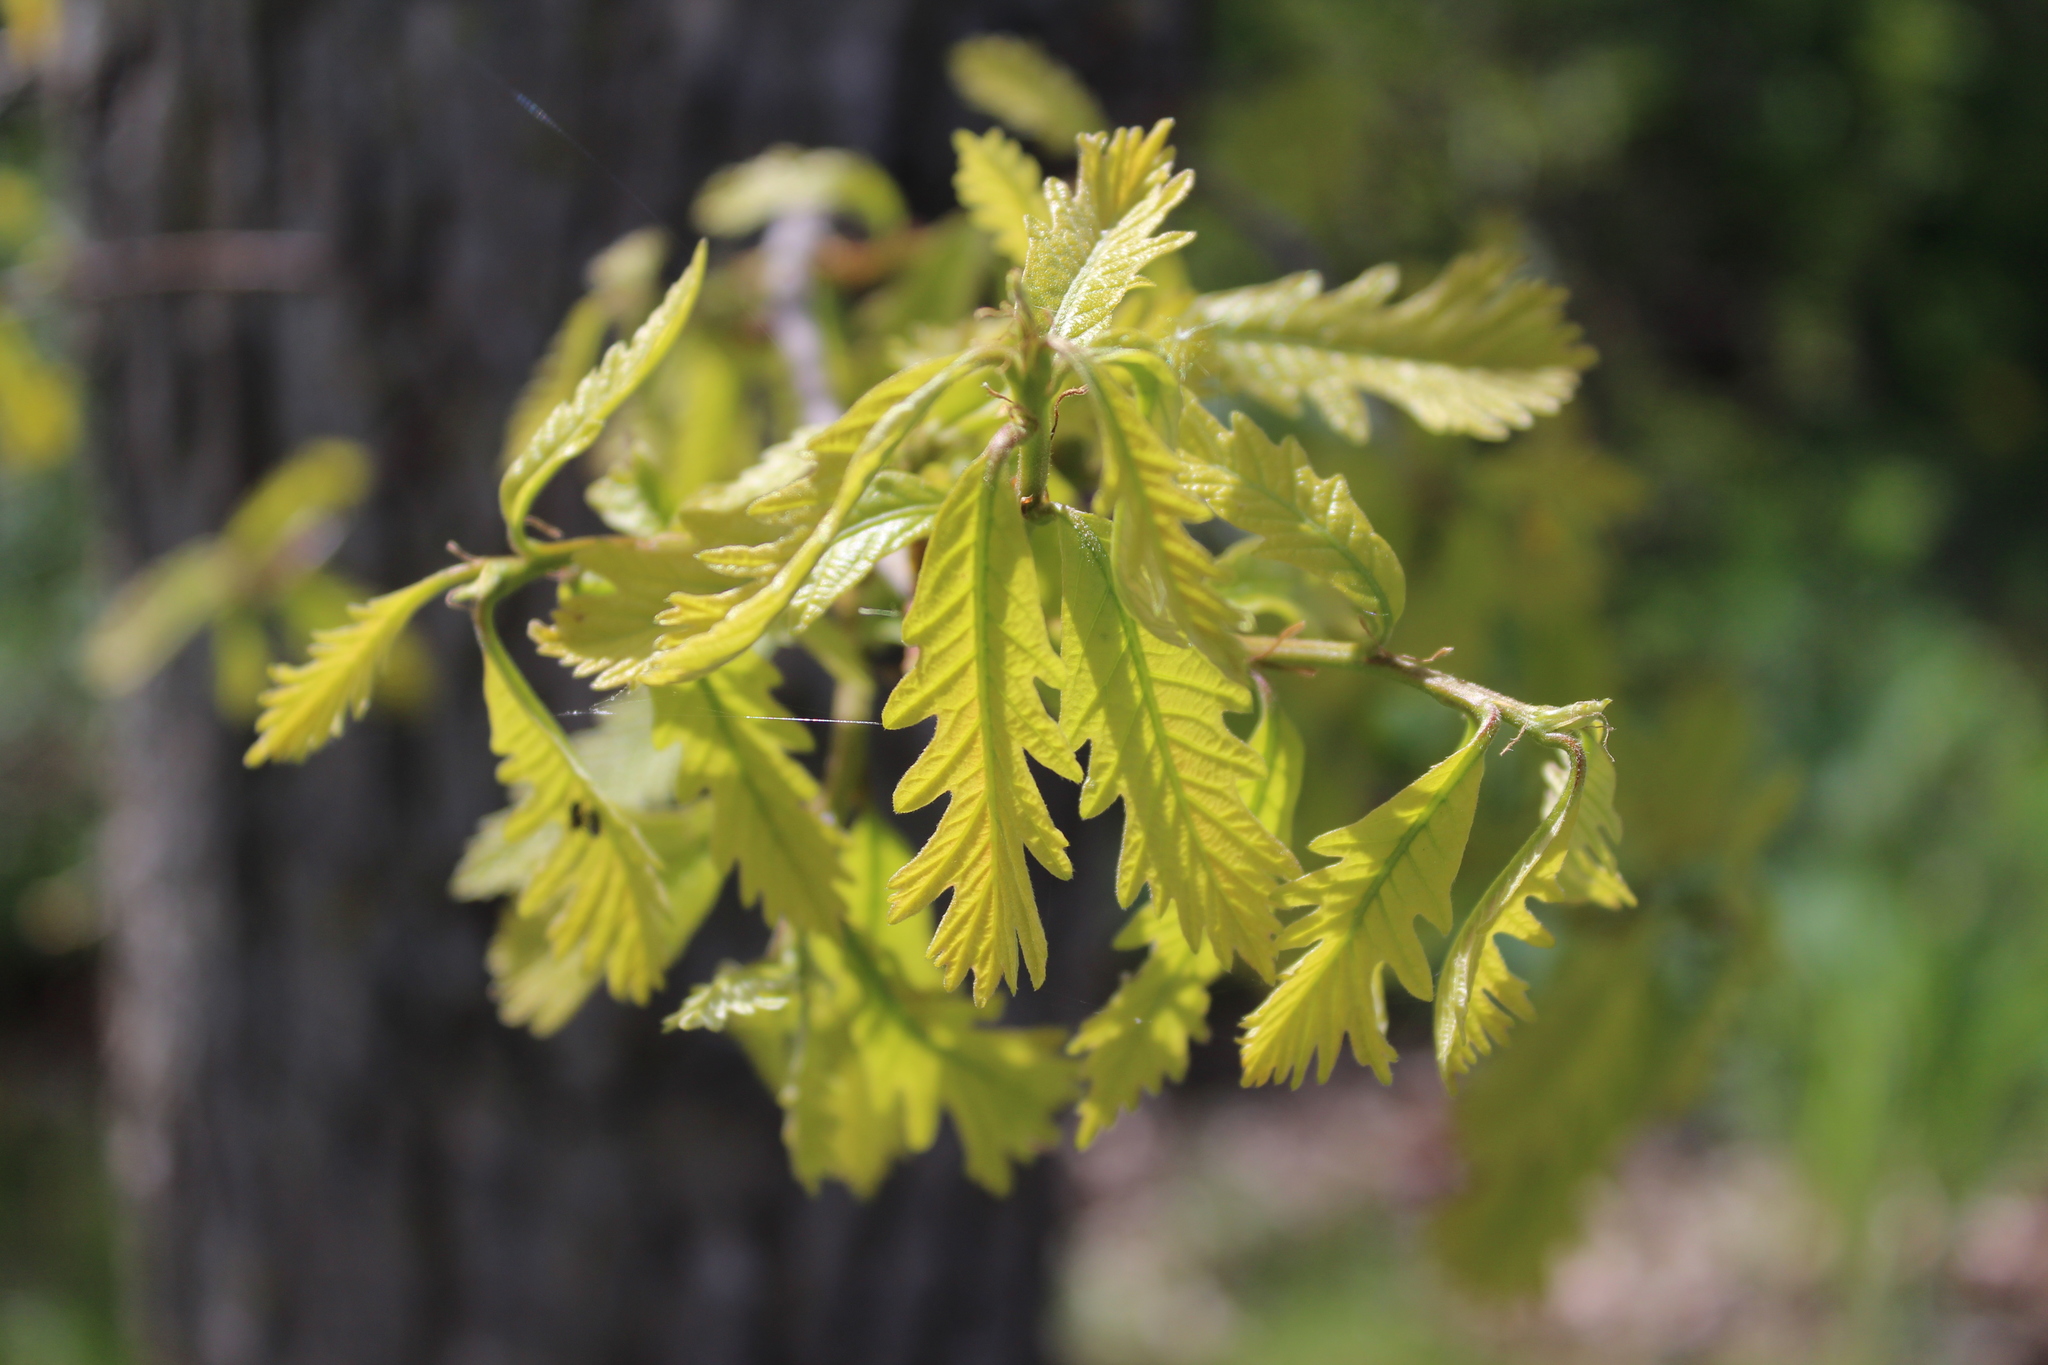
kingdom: Plantae
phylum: Tracheophyta
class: Magnoliopsida
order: Fagales
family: Fagaceae
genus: Quercus
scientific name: Quercus macrocarpa
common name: Bur oak
